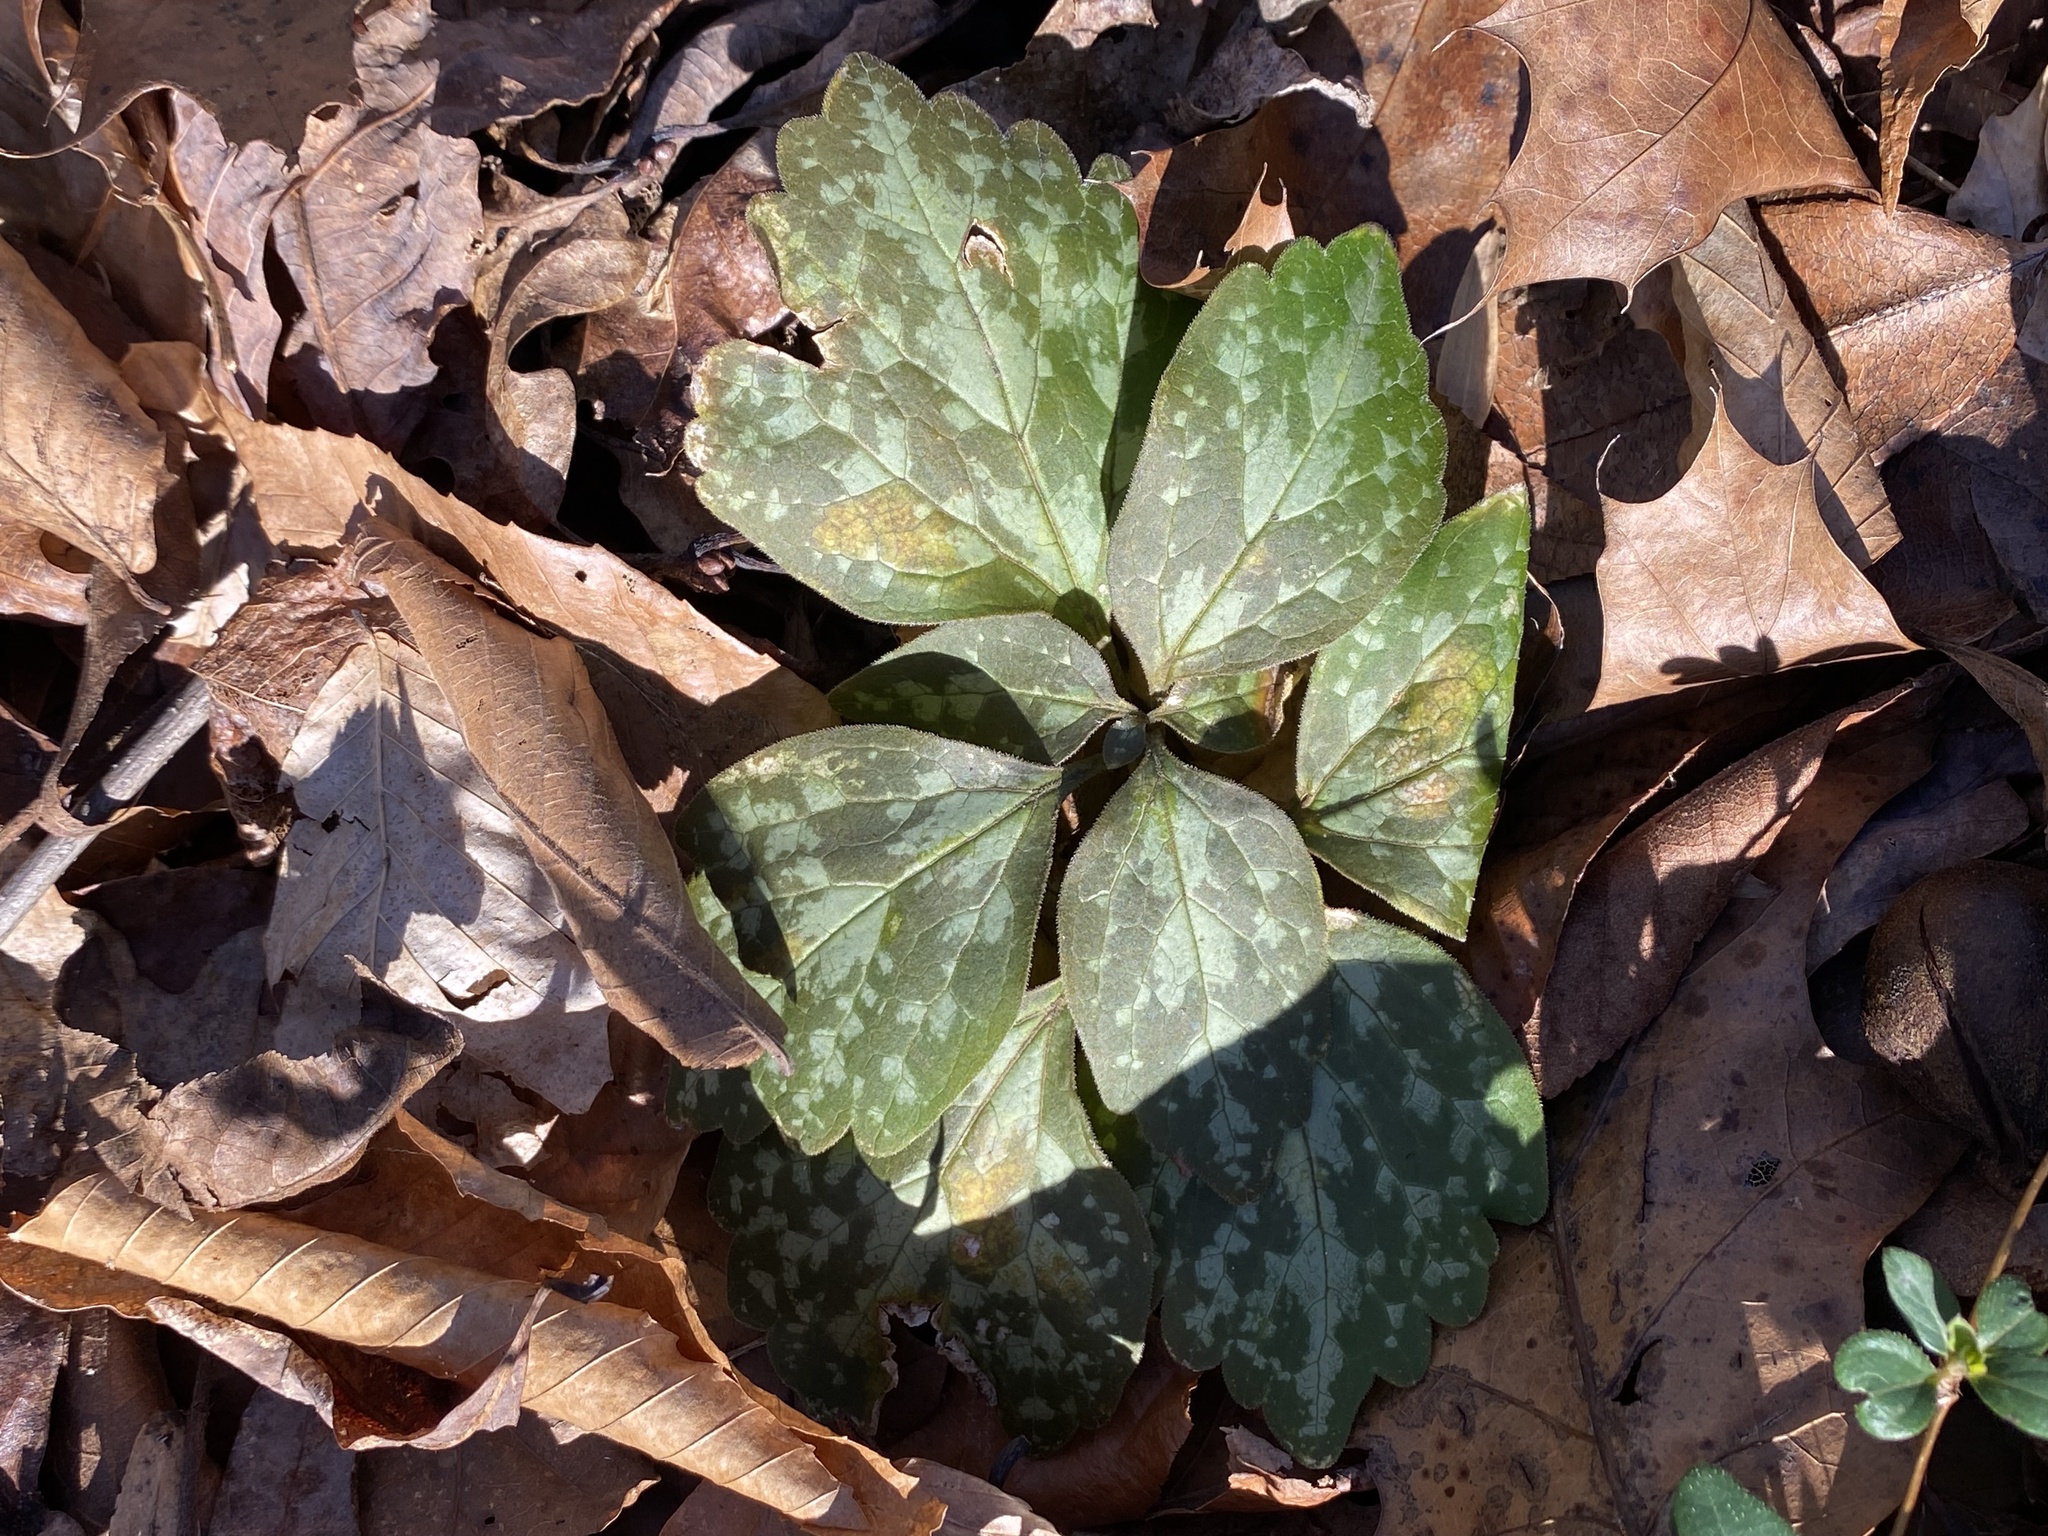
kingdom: Plantae
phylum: Tracheophyta
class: Magnoliopsida
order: Buxales
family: Buxaceae
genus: Pachysandra
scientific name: Pachysandra procumbens
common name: Mountain-spurge
